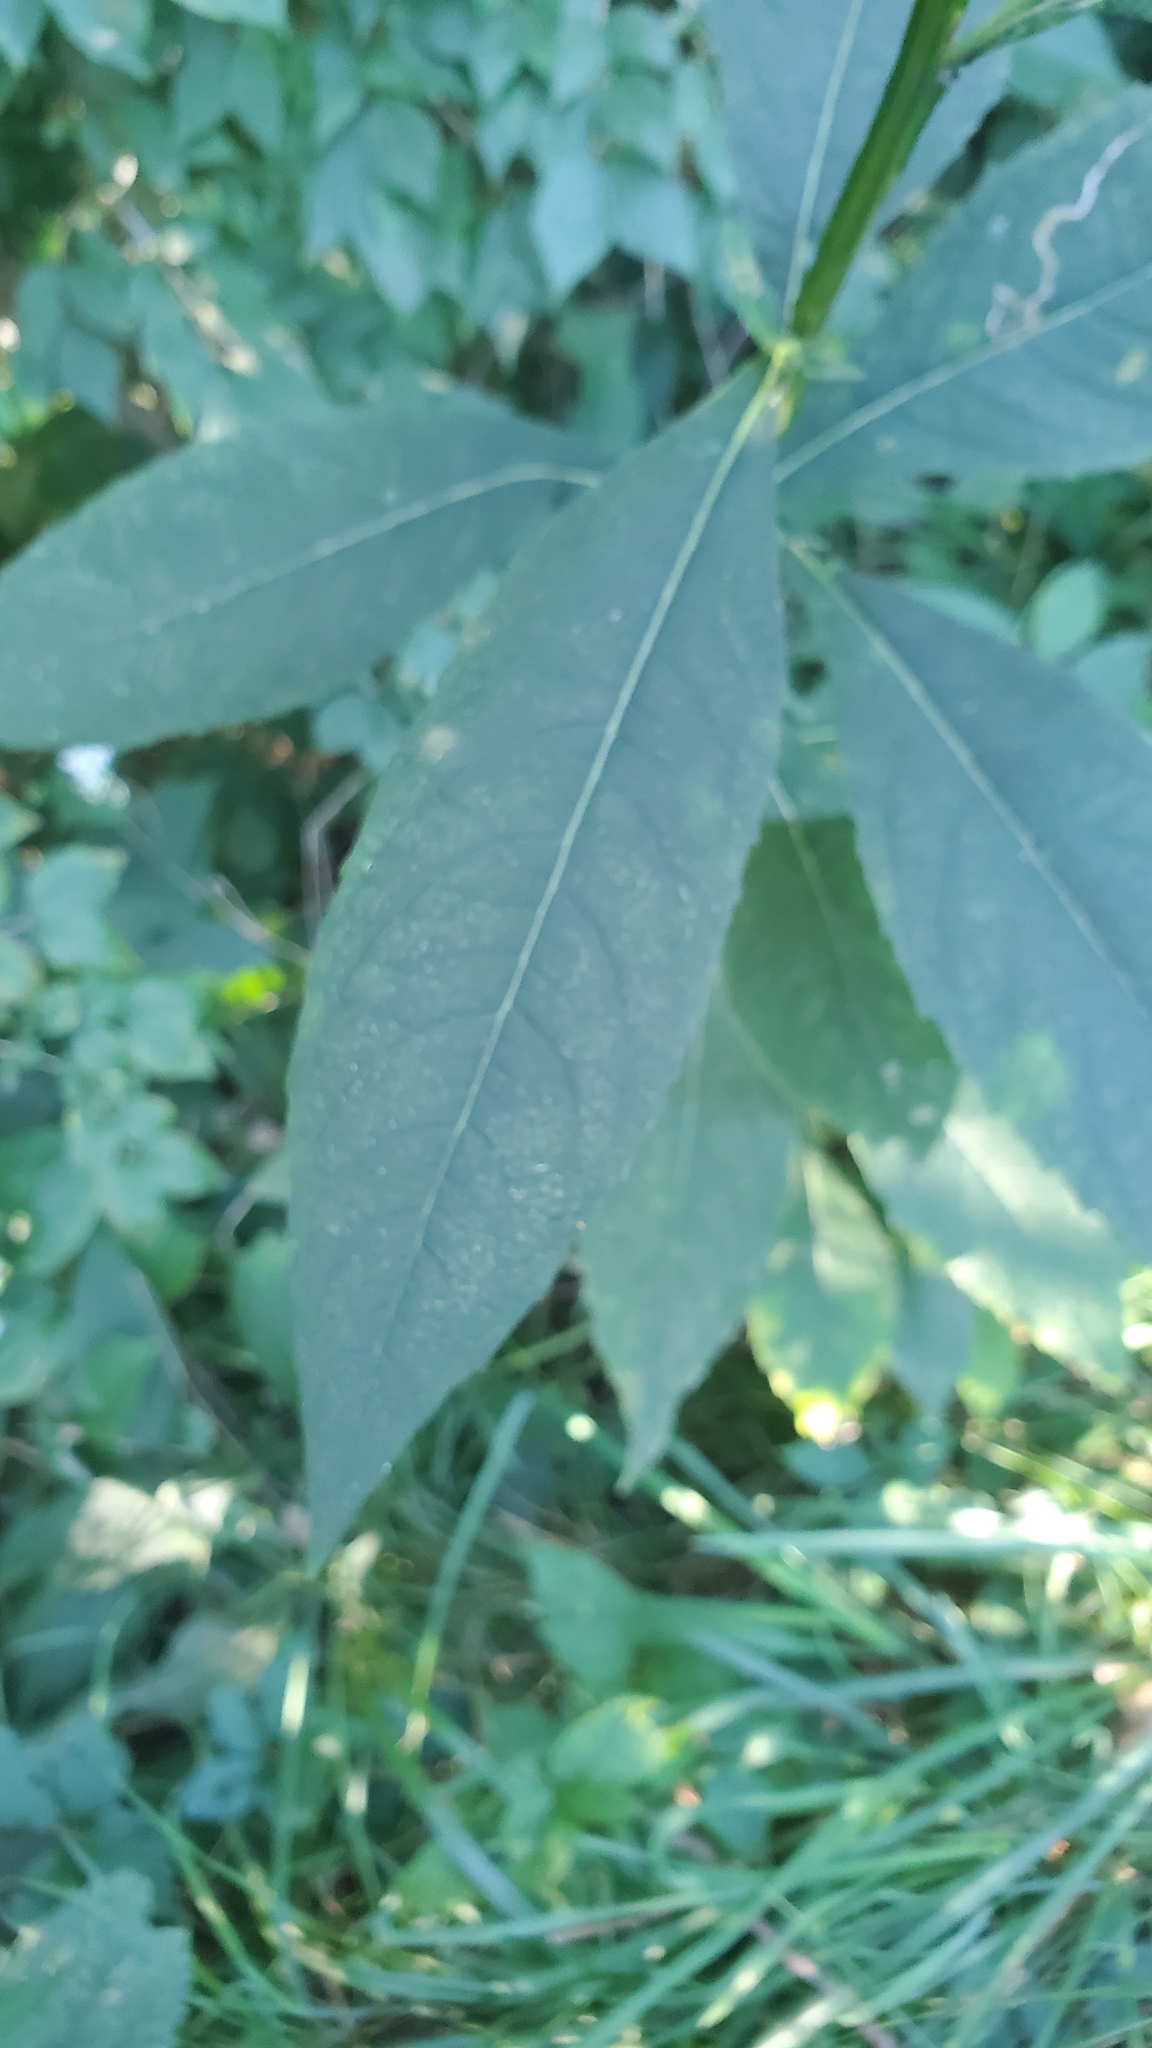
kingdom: Plantae
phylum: Tracheophyta
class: Magnoliopsida
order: Asterales
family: Asteraceae
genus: Verbesina
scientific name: Verbesina alternifolia
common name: Wingstem
